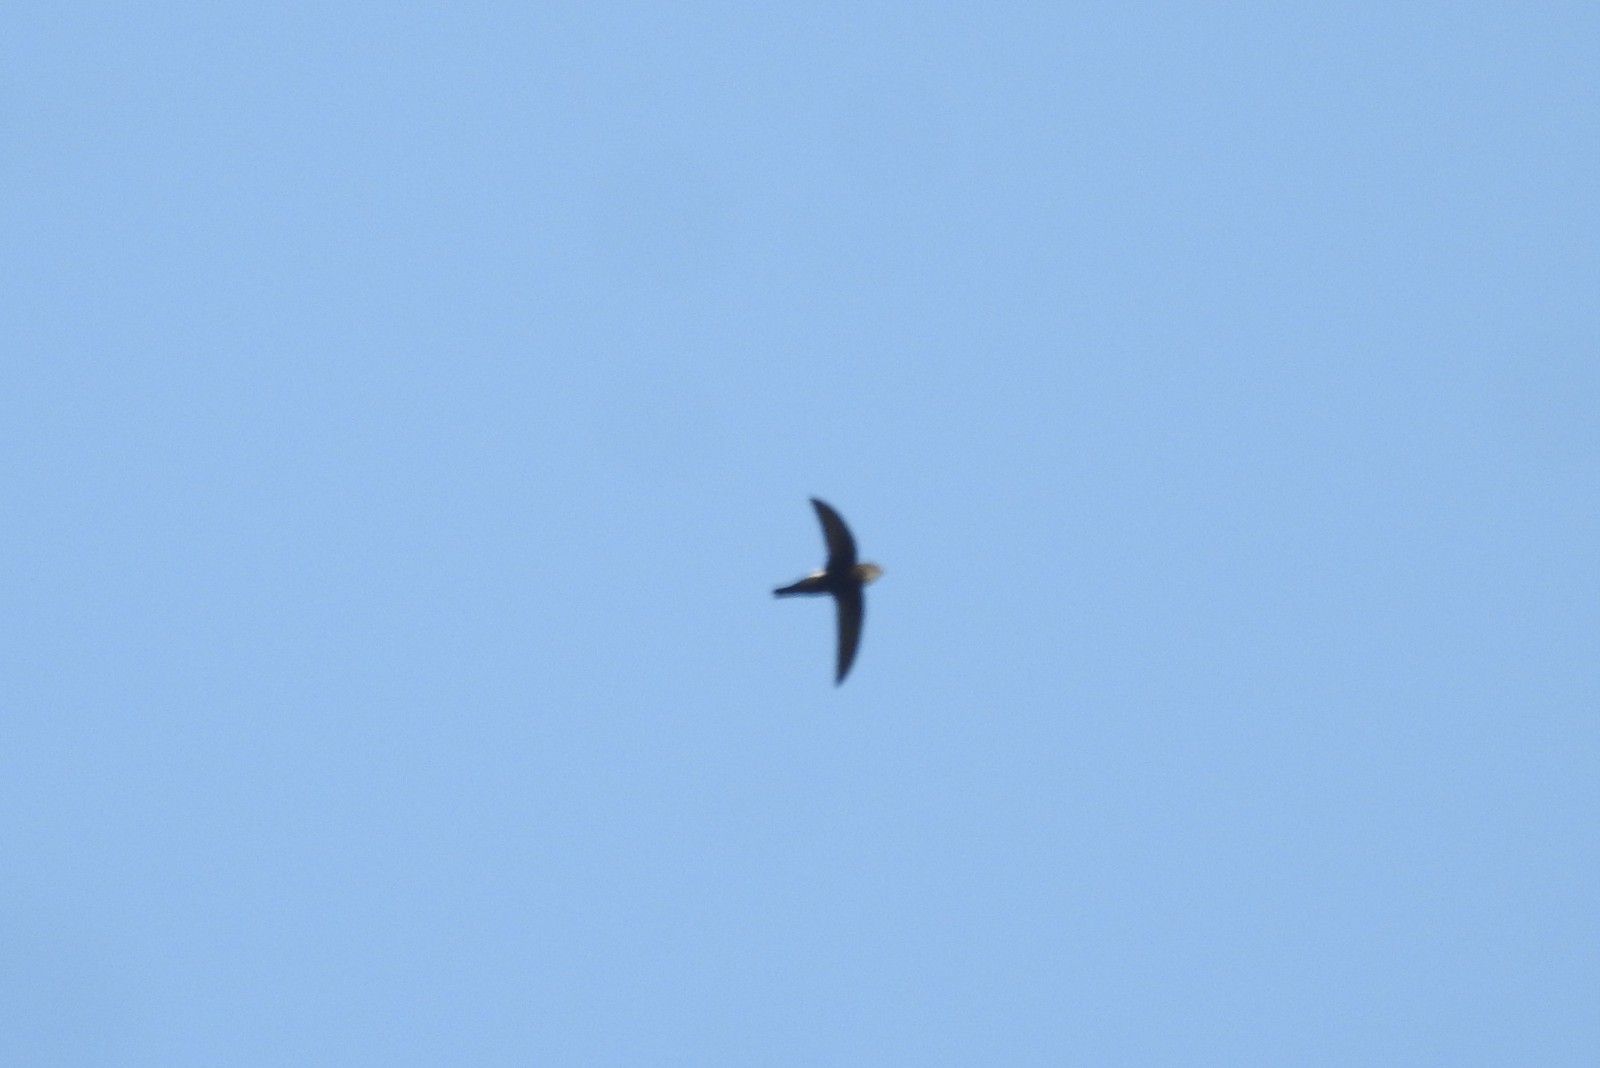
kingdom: Animalia
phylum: Chordata
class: Aves
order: Apodiformes
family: Apodidae
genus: Apus
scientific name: Apus affinis
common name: Little swift
